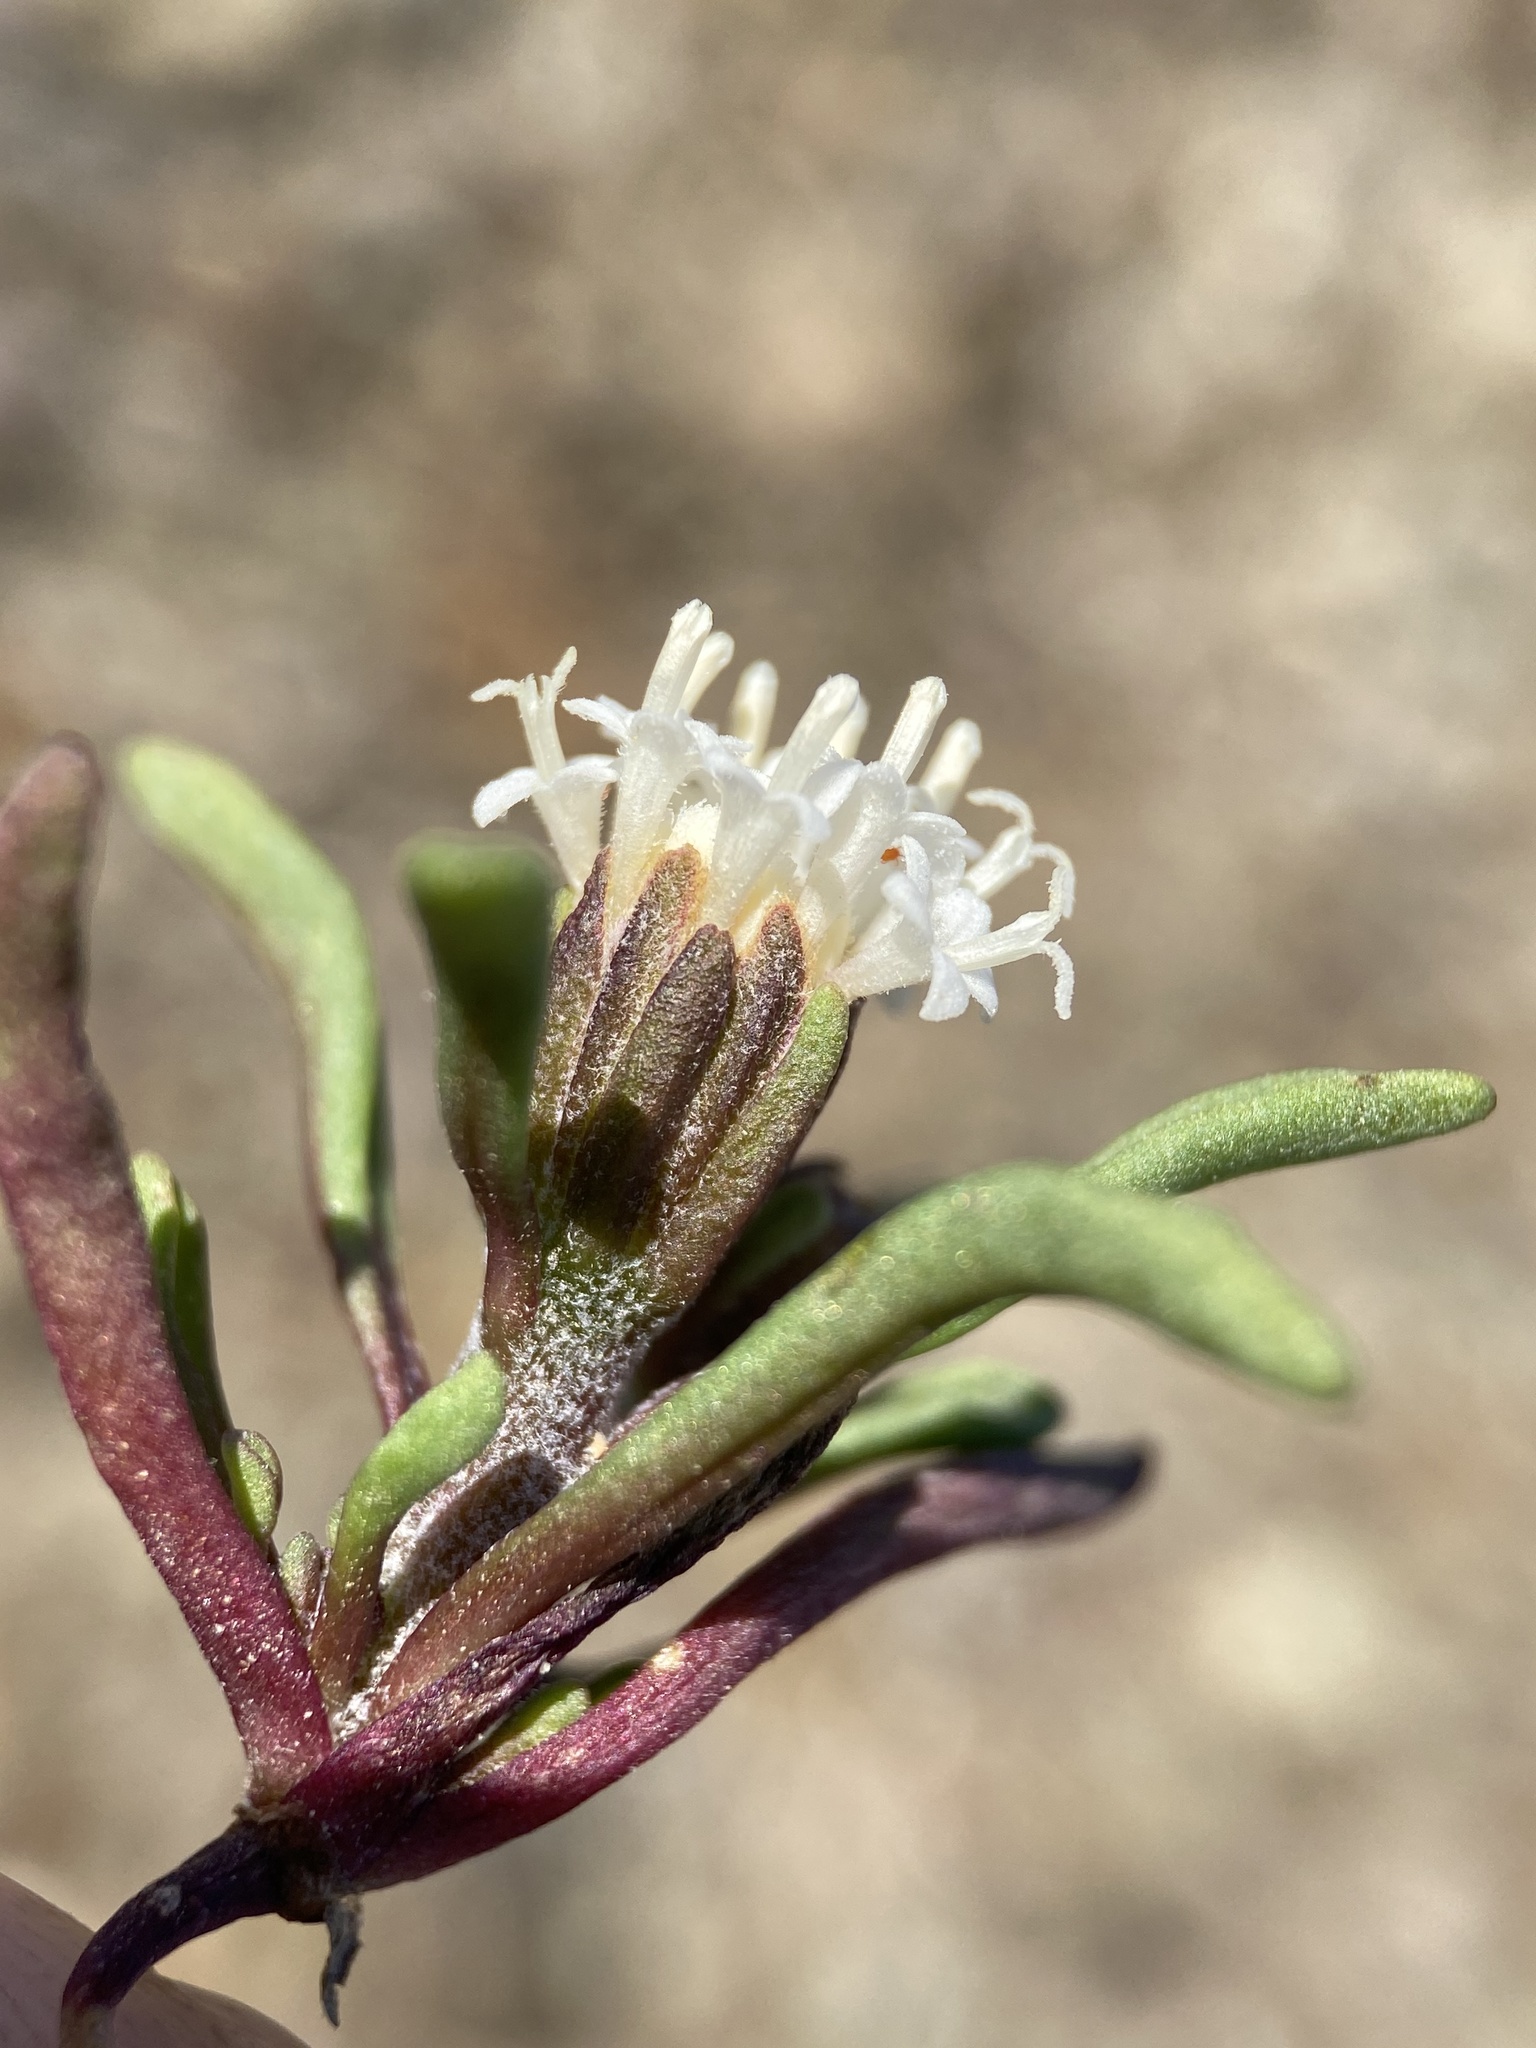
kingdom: Plantae
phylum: Tracheophyta
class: Magnoliopsida
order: Asterales
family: Asteraceae
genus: Chaenactis
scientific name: Chaenactis cusickii
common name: Cusick's pincushion
